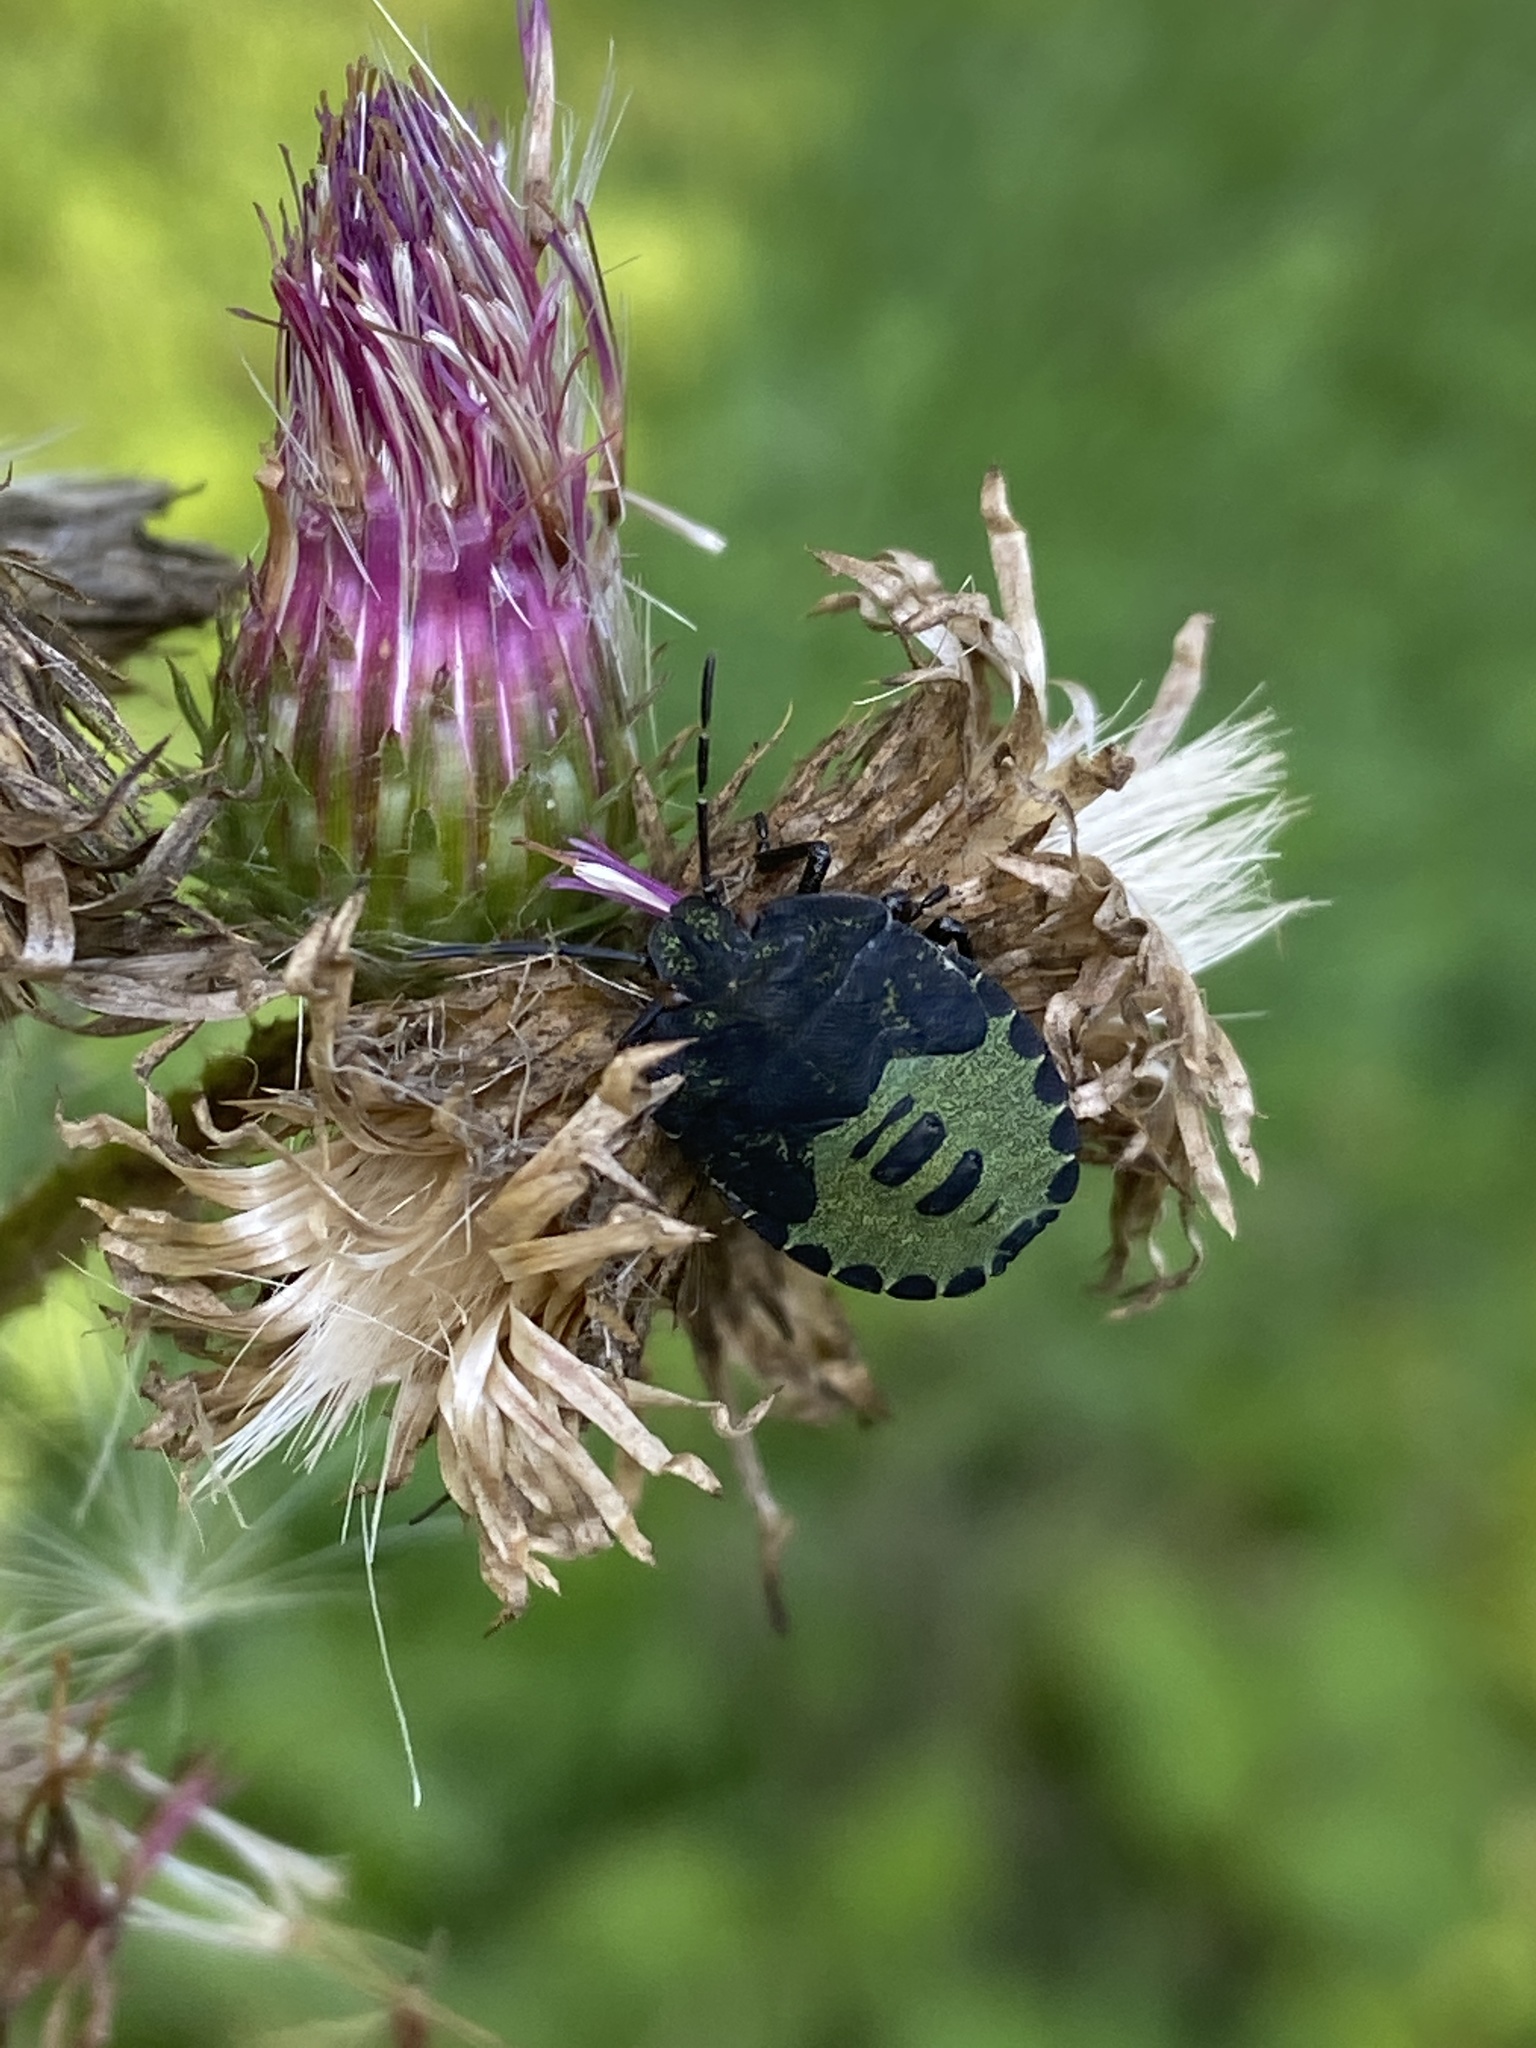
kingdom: Animalia
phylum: Arthropoda
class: Insecta
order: Hemiptera
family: Pentatomidae
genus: Palomena
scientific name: Palomena prasina
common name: Green shieldbug
